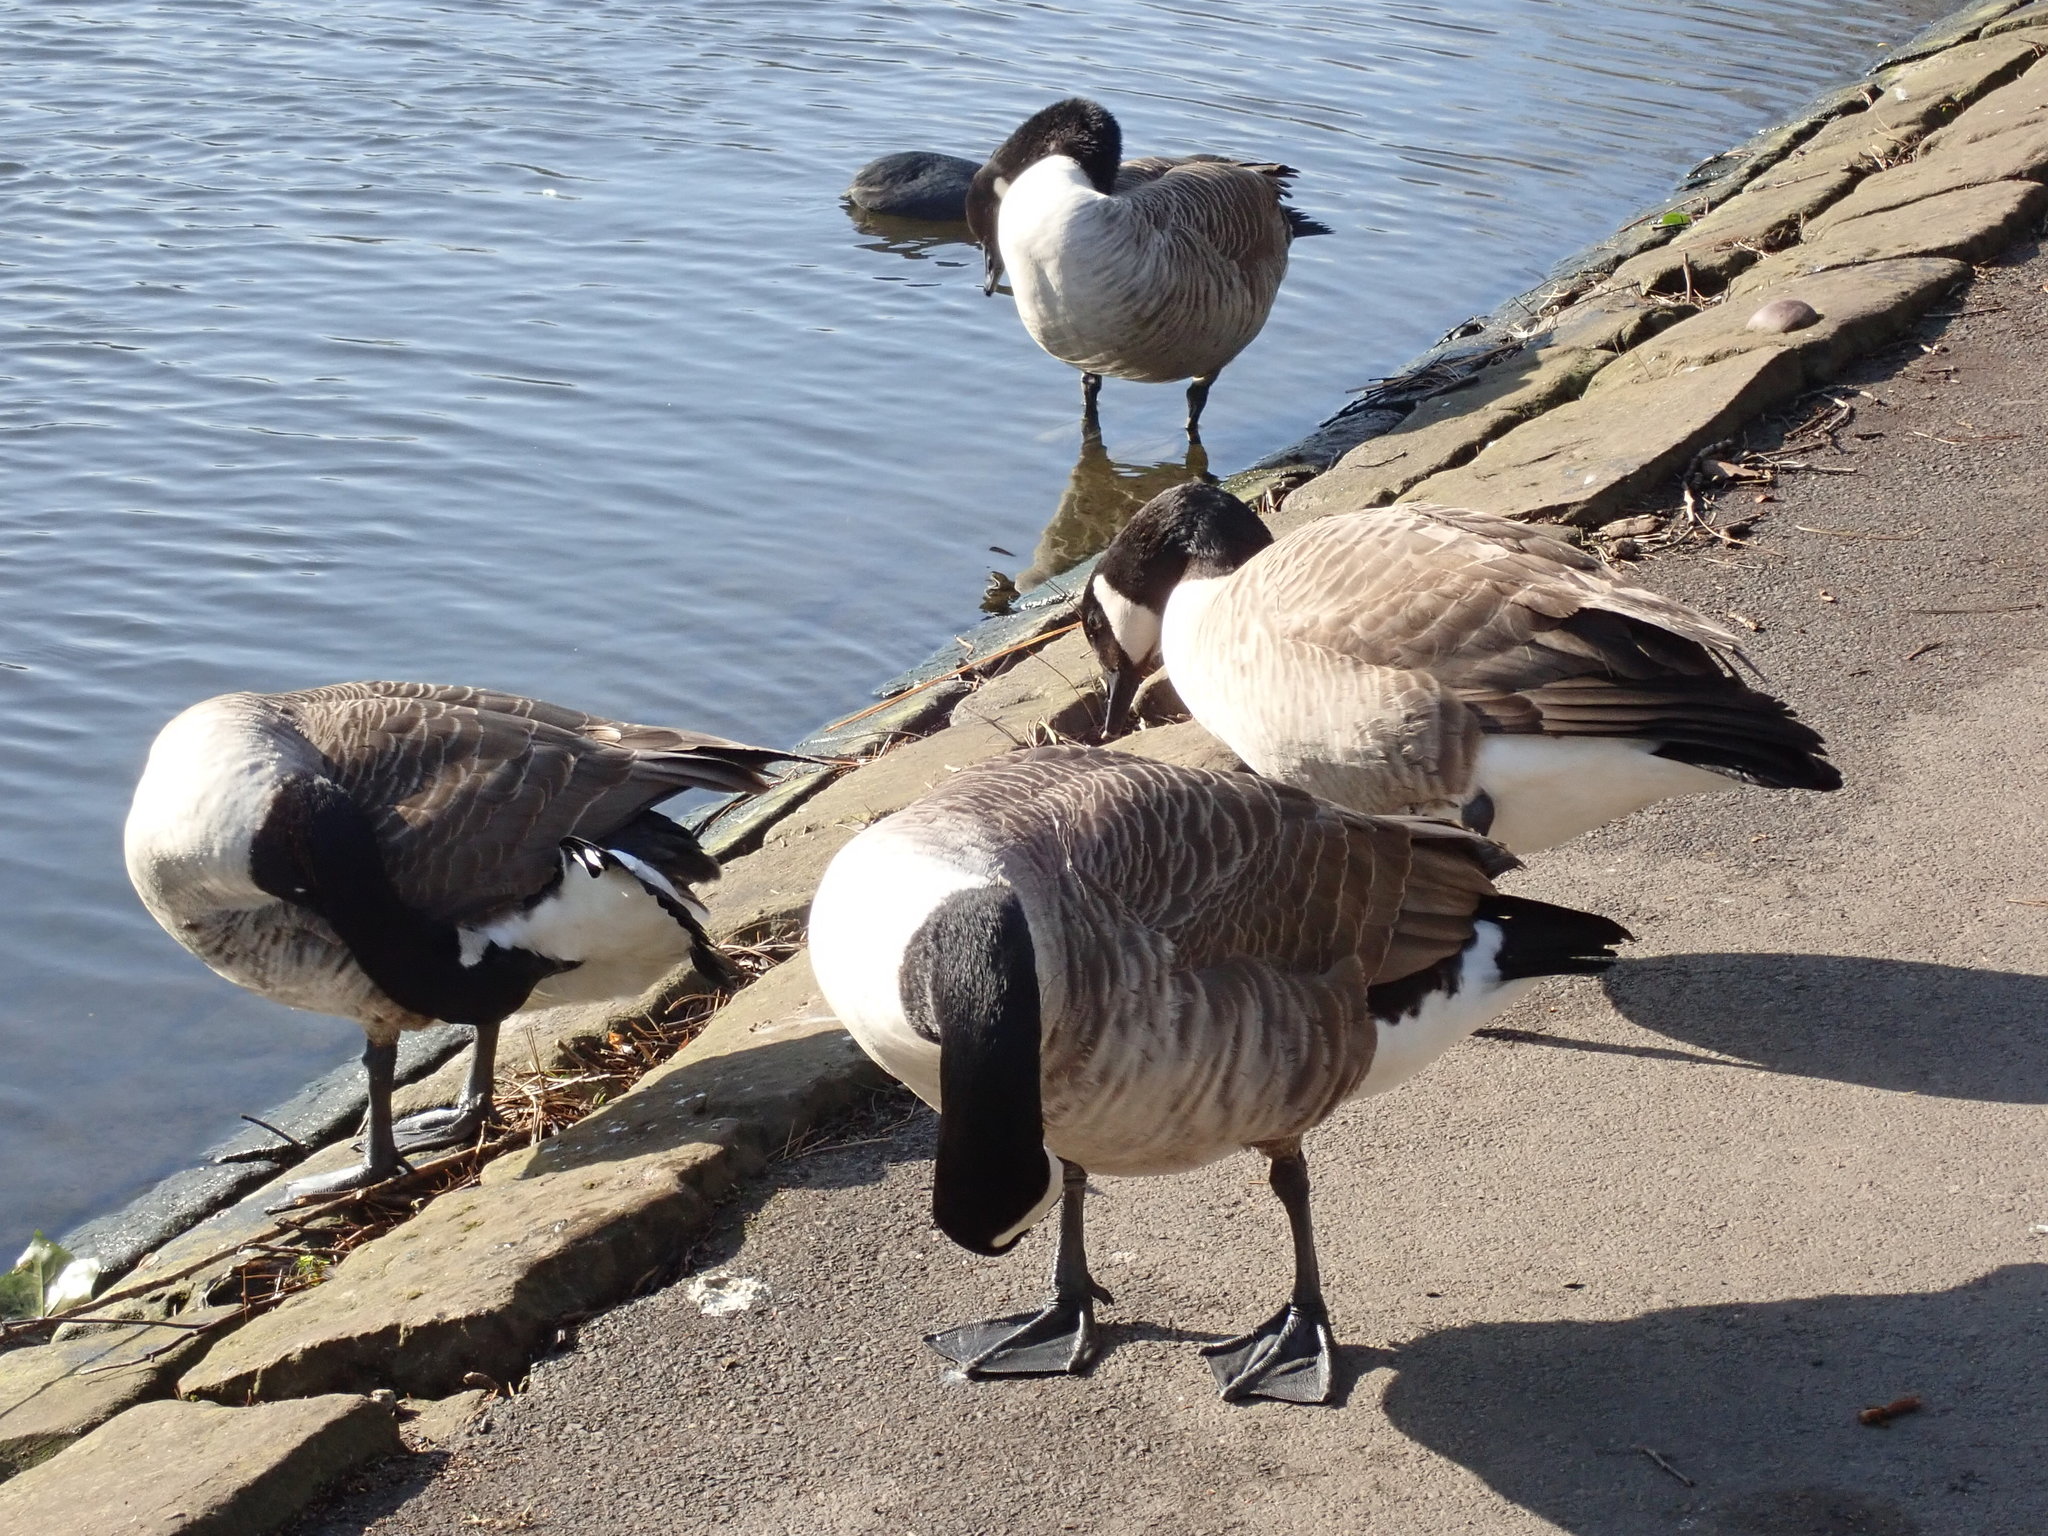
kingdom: Animalia
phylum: Chordata
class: Aves
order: Anseriformes
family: Anatidae
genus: Branta
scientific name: Branta canadensis
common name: Canada goose
